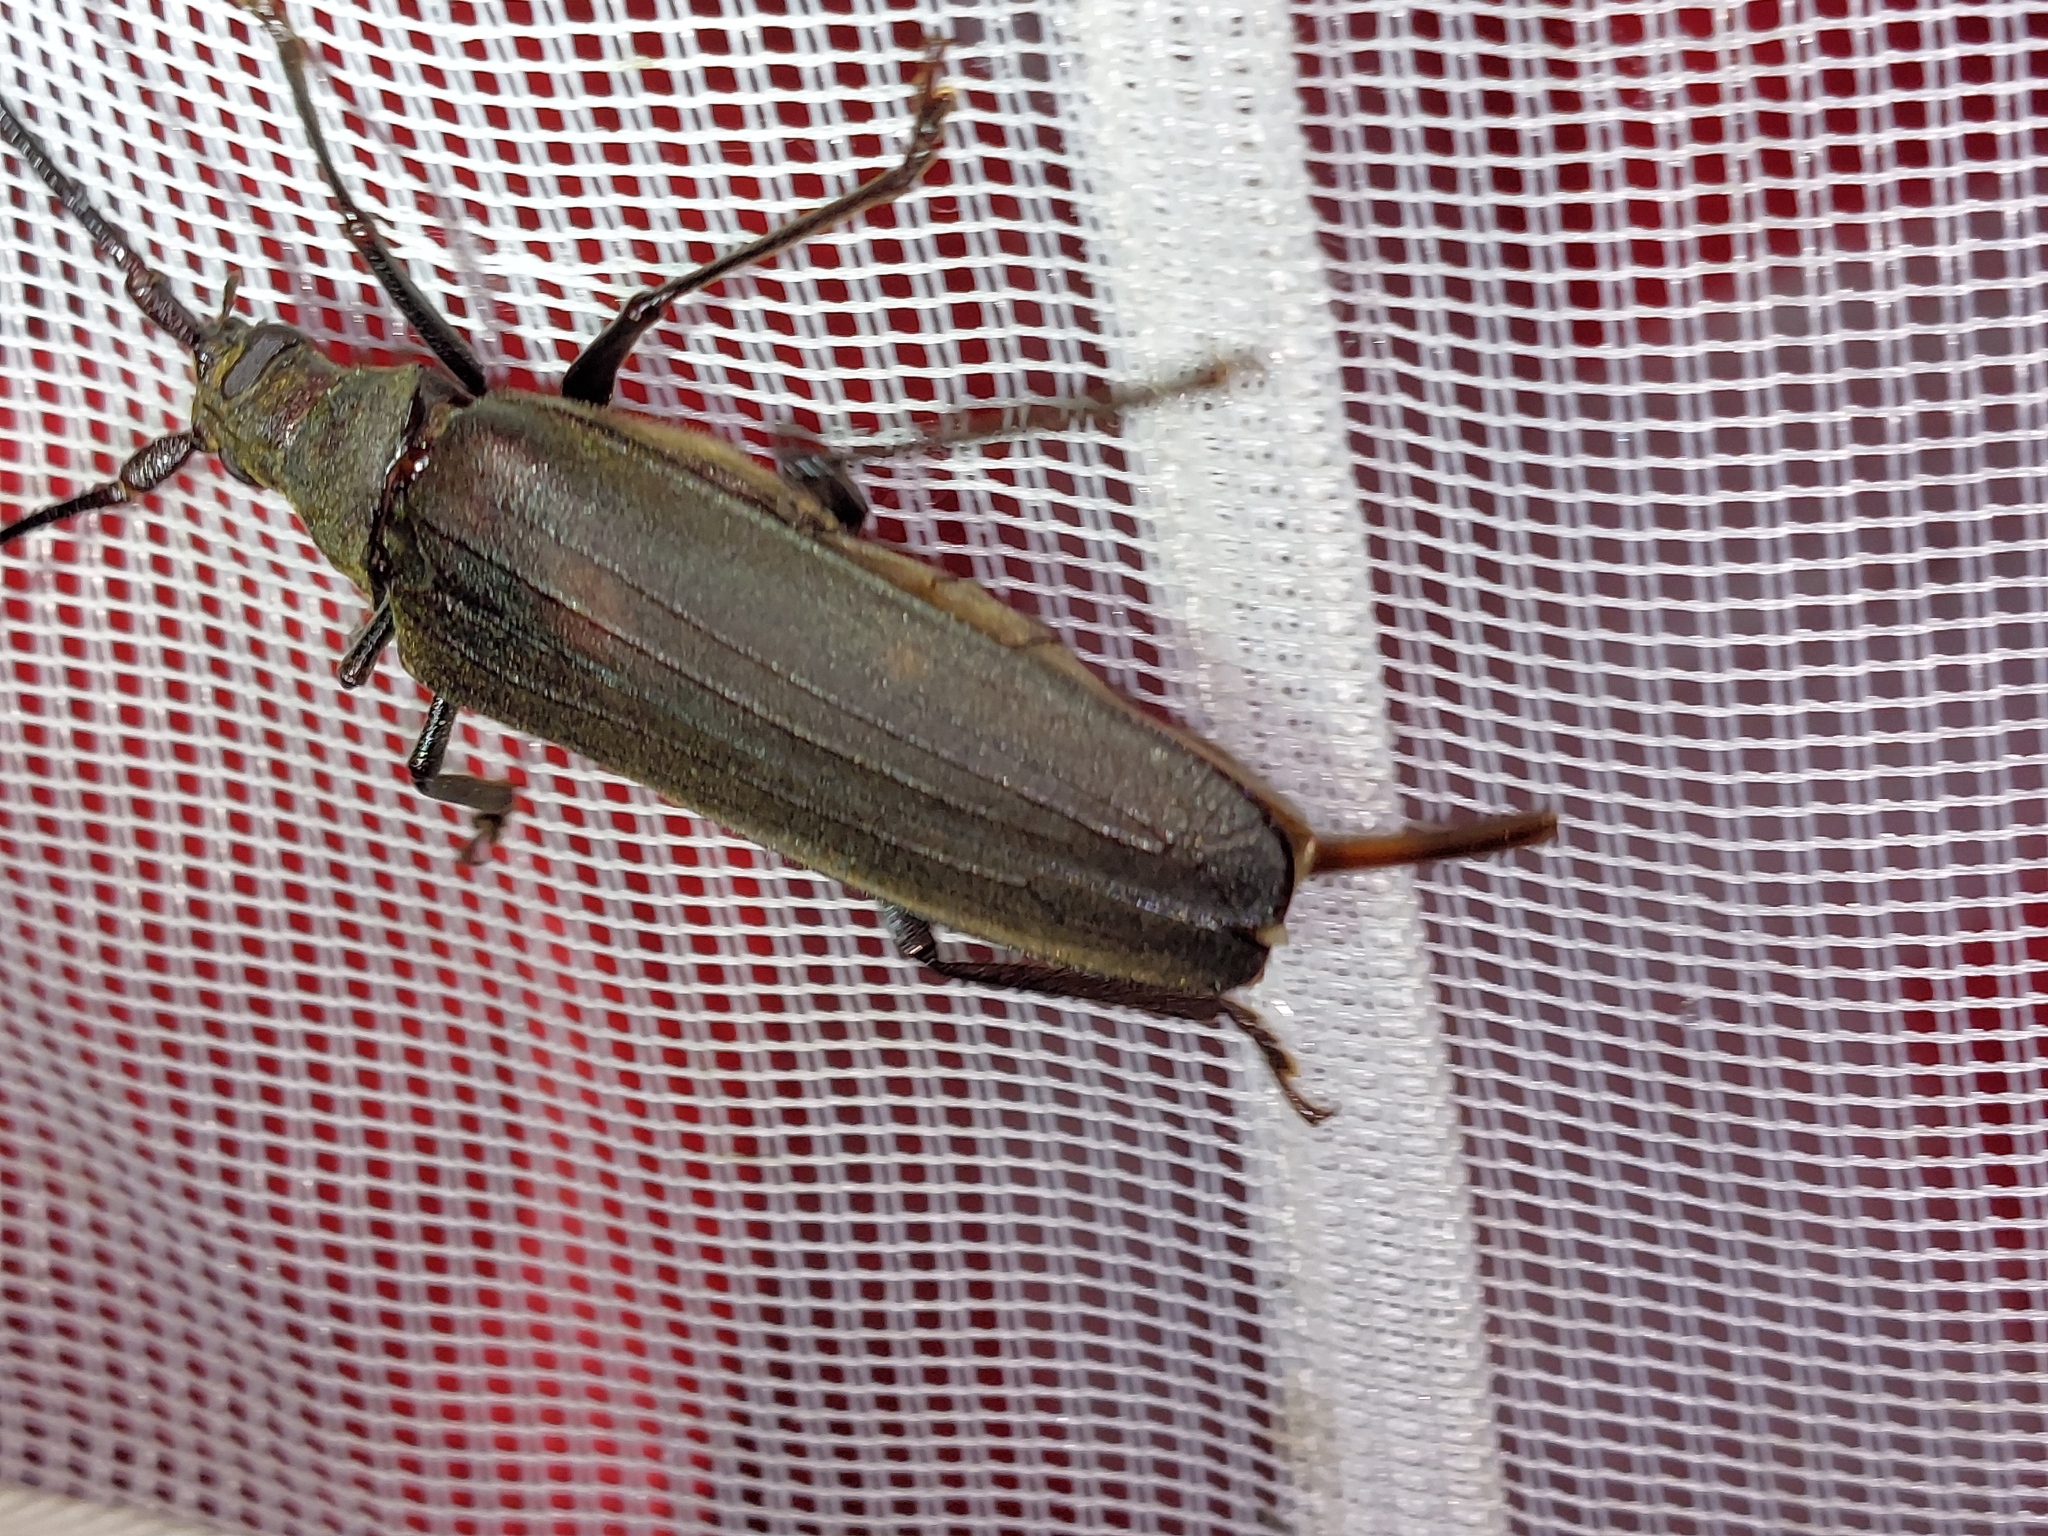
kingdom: Animalia
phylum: Arthropoda
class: Insecta
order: Coleoptera
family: Cerambycidae
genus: Aegosoma
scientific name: Aegosoma scabricorne
